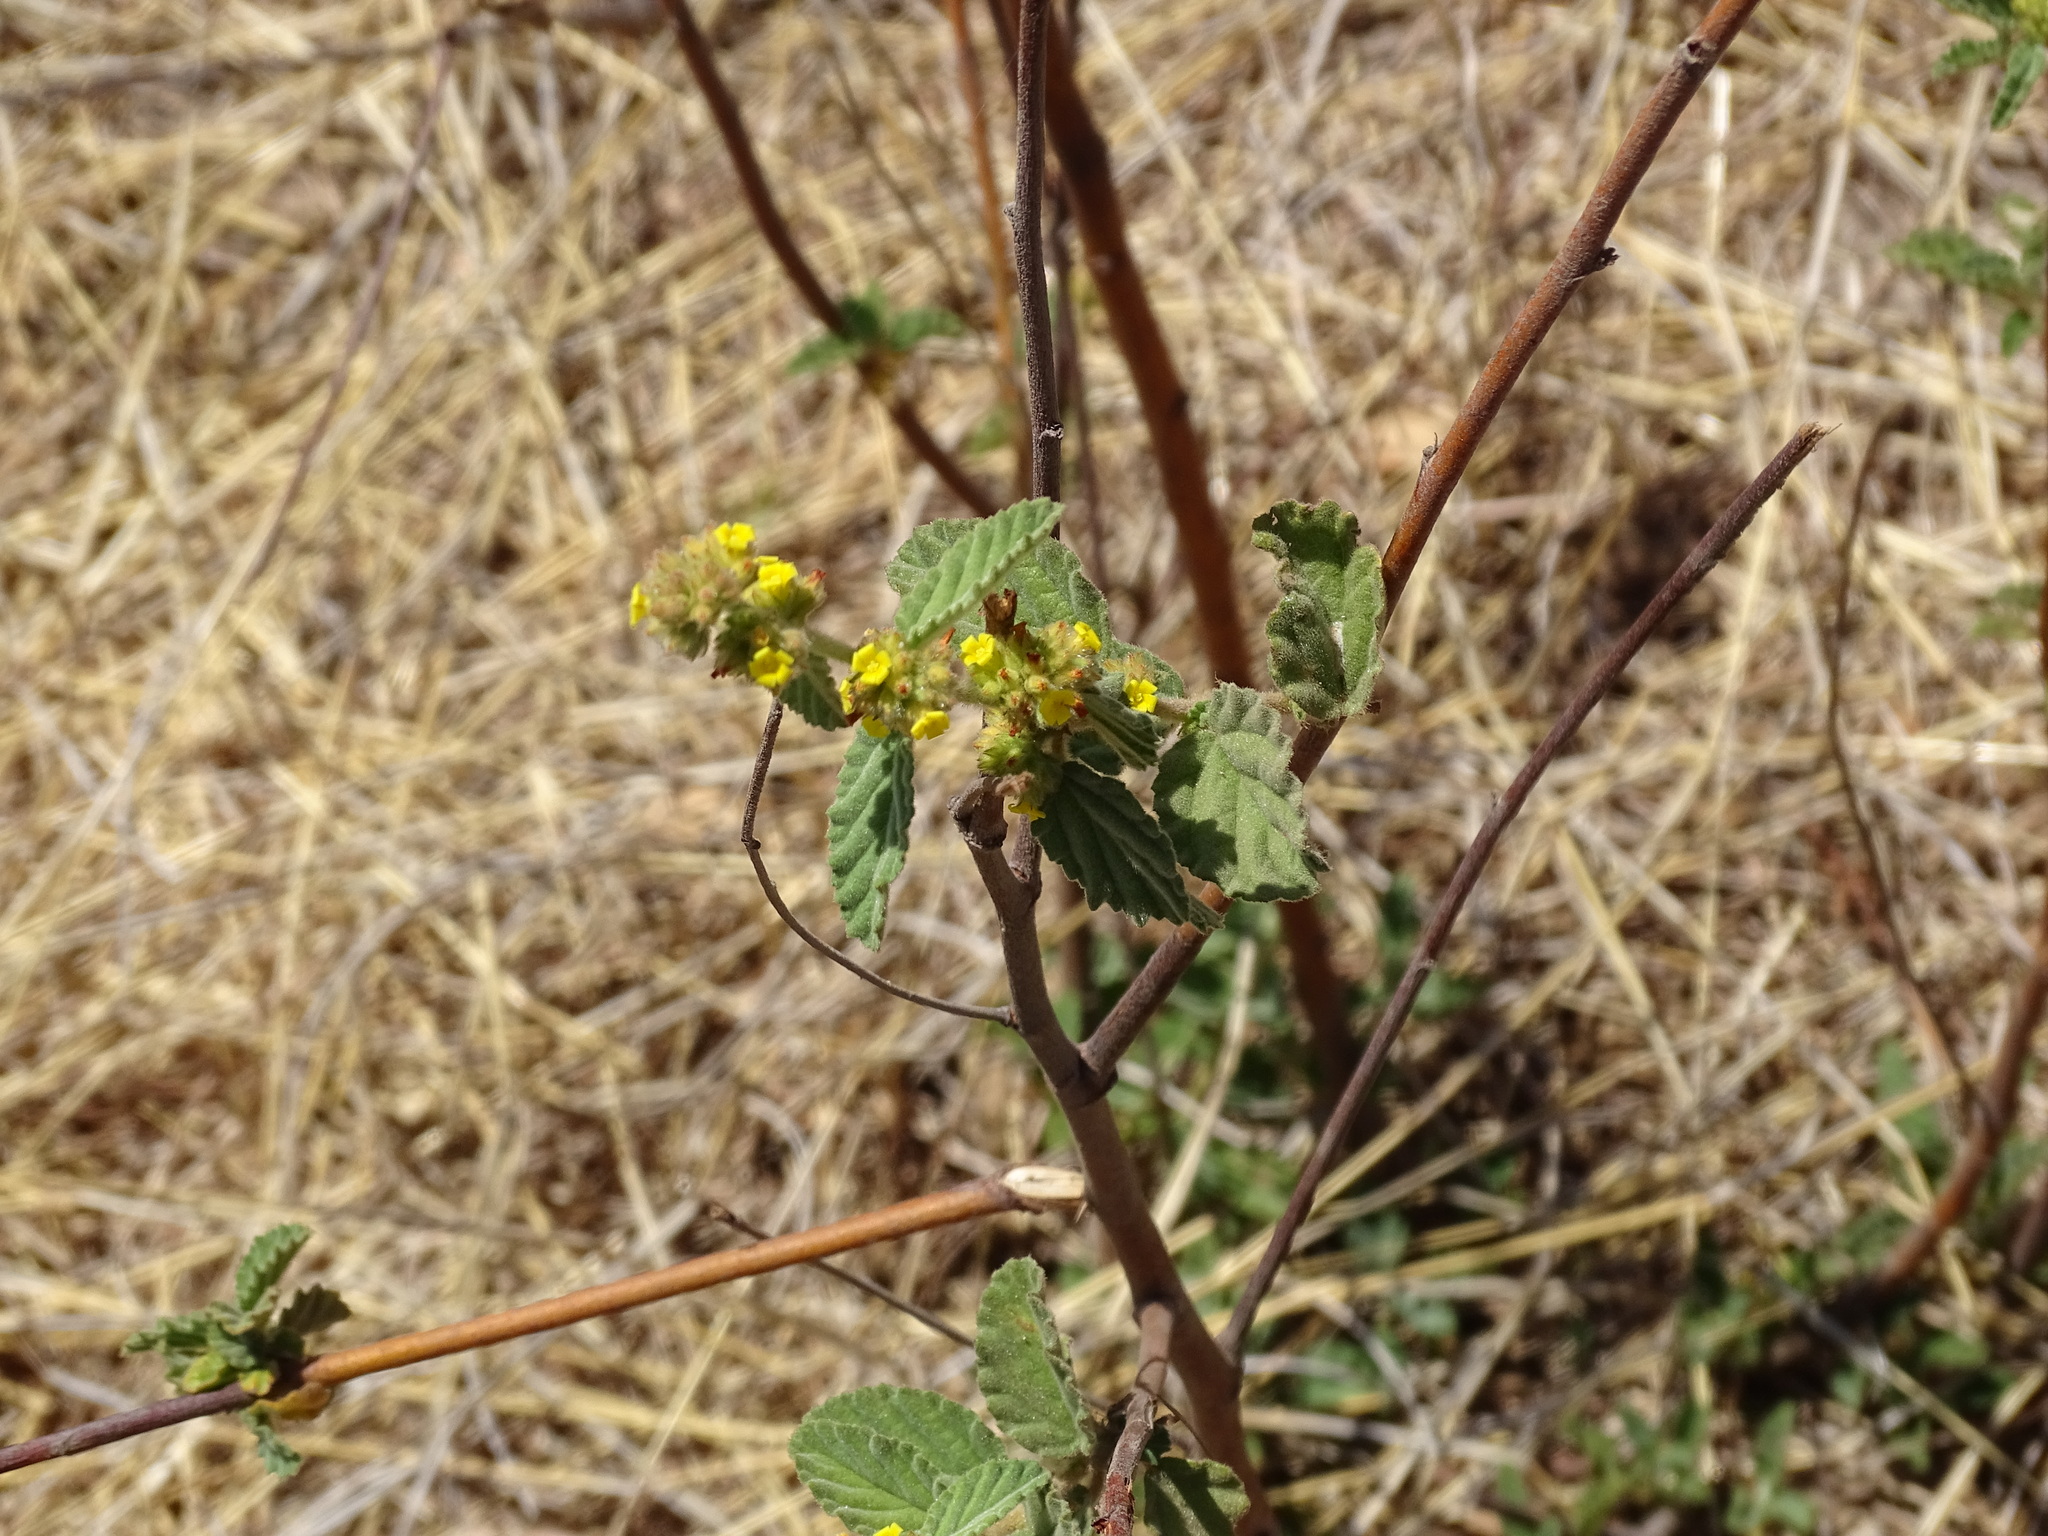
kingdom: Plantae
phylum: Tracheophyta
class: Magnoliopsida
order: Malvales
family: Malvaceae
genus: Waltheria
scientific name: Waltheria indica
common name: Leather-coat
